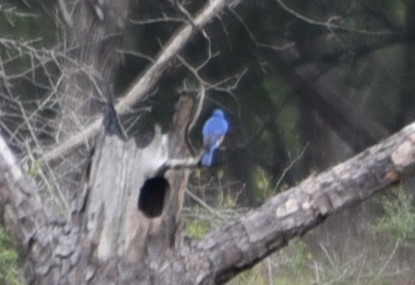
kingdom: Animalia
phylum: Chordata
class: Aves
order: Passeriformes
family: Turdidae
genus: Sialia
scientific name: Sialia sialis
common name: Eastern bluebird
